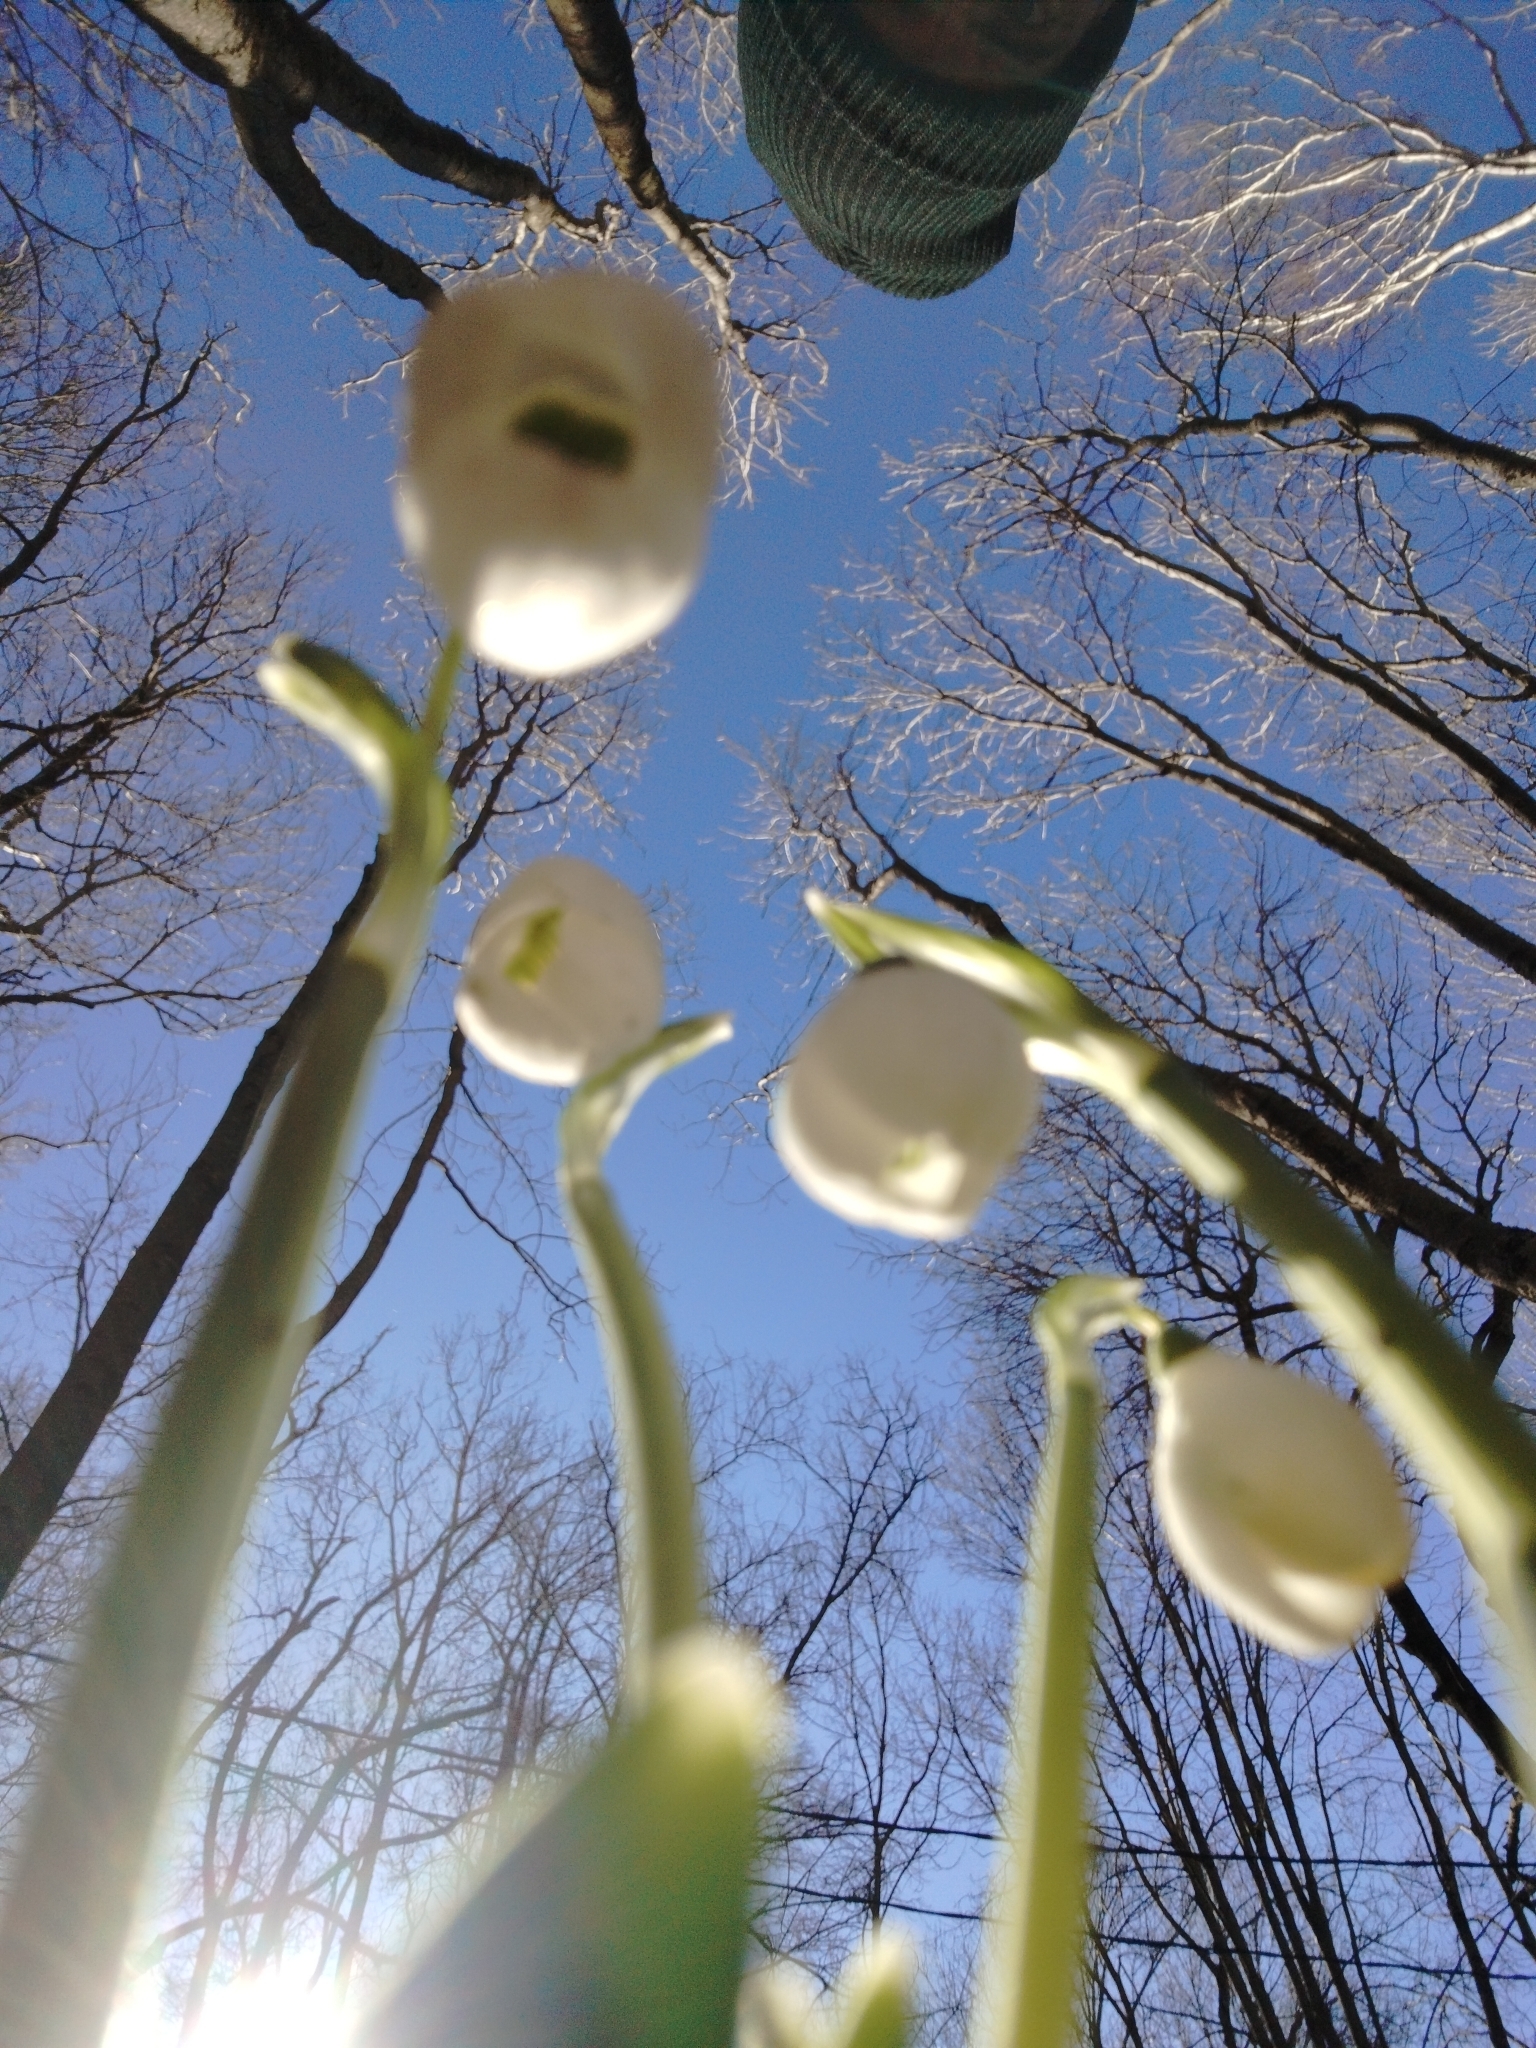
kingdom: Plantae
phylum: Tracheophyta
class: Liliopsida
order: Asparagales
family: Amaryllidaceae
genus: Galanthus
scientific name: Galanthus nivalis
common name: Snowdrop
